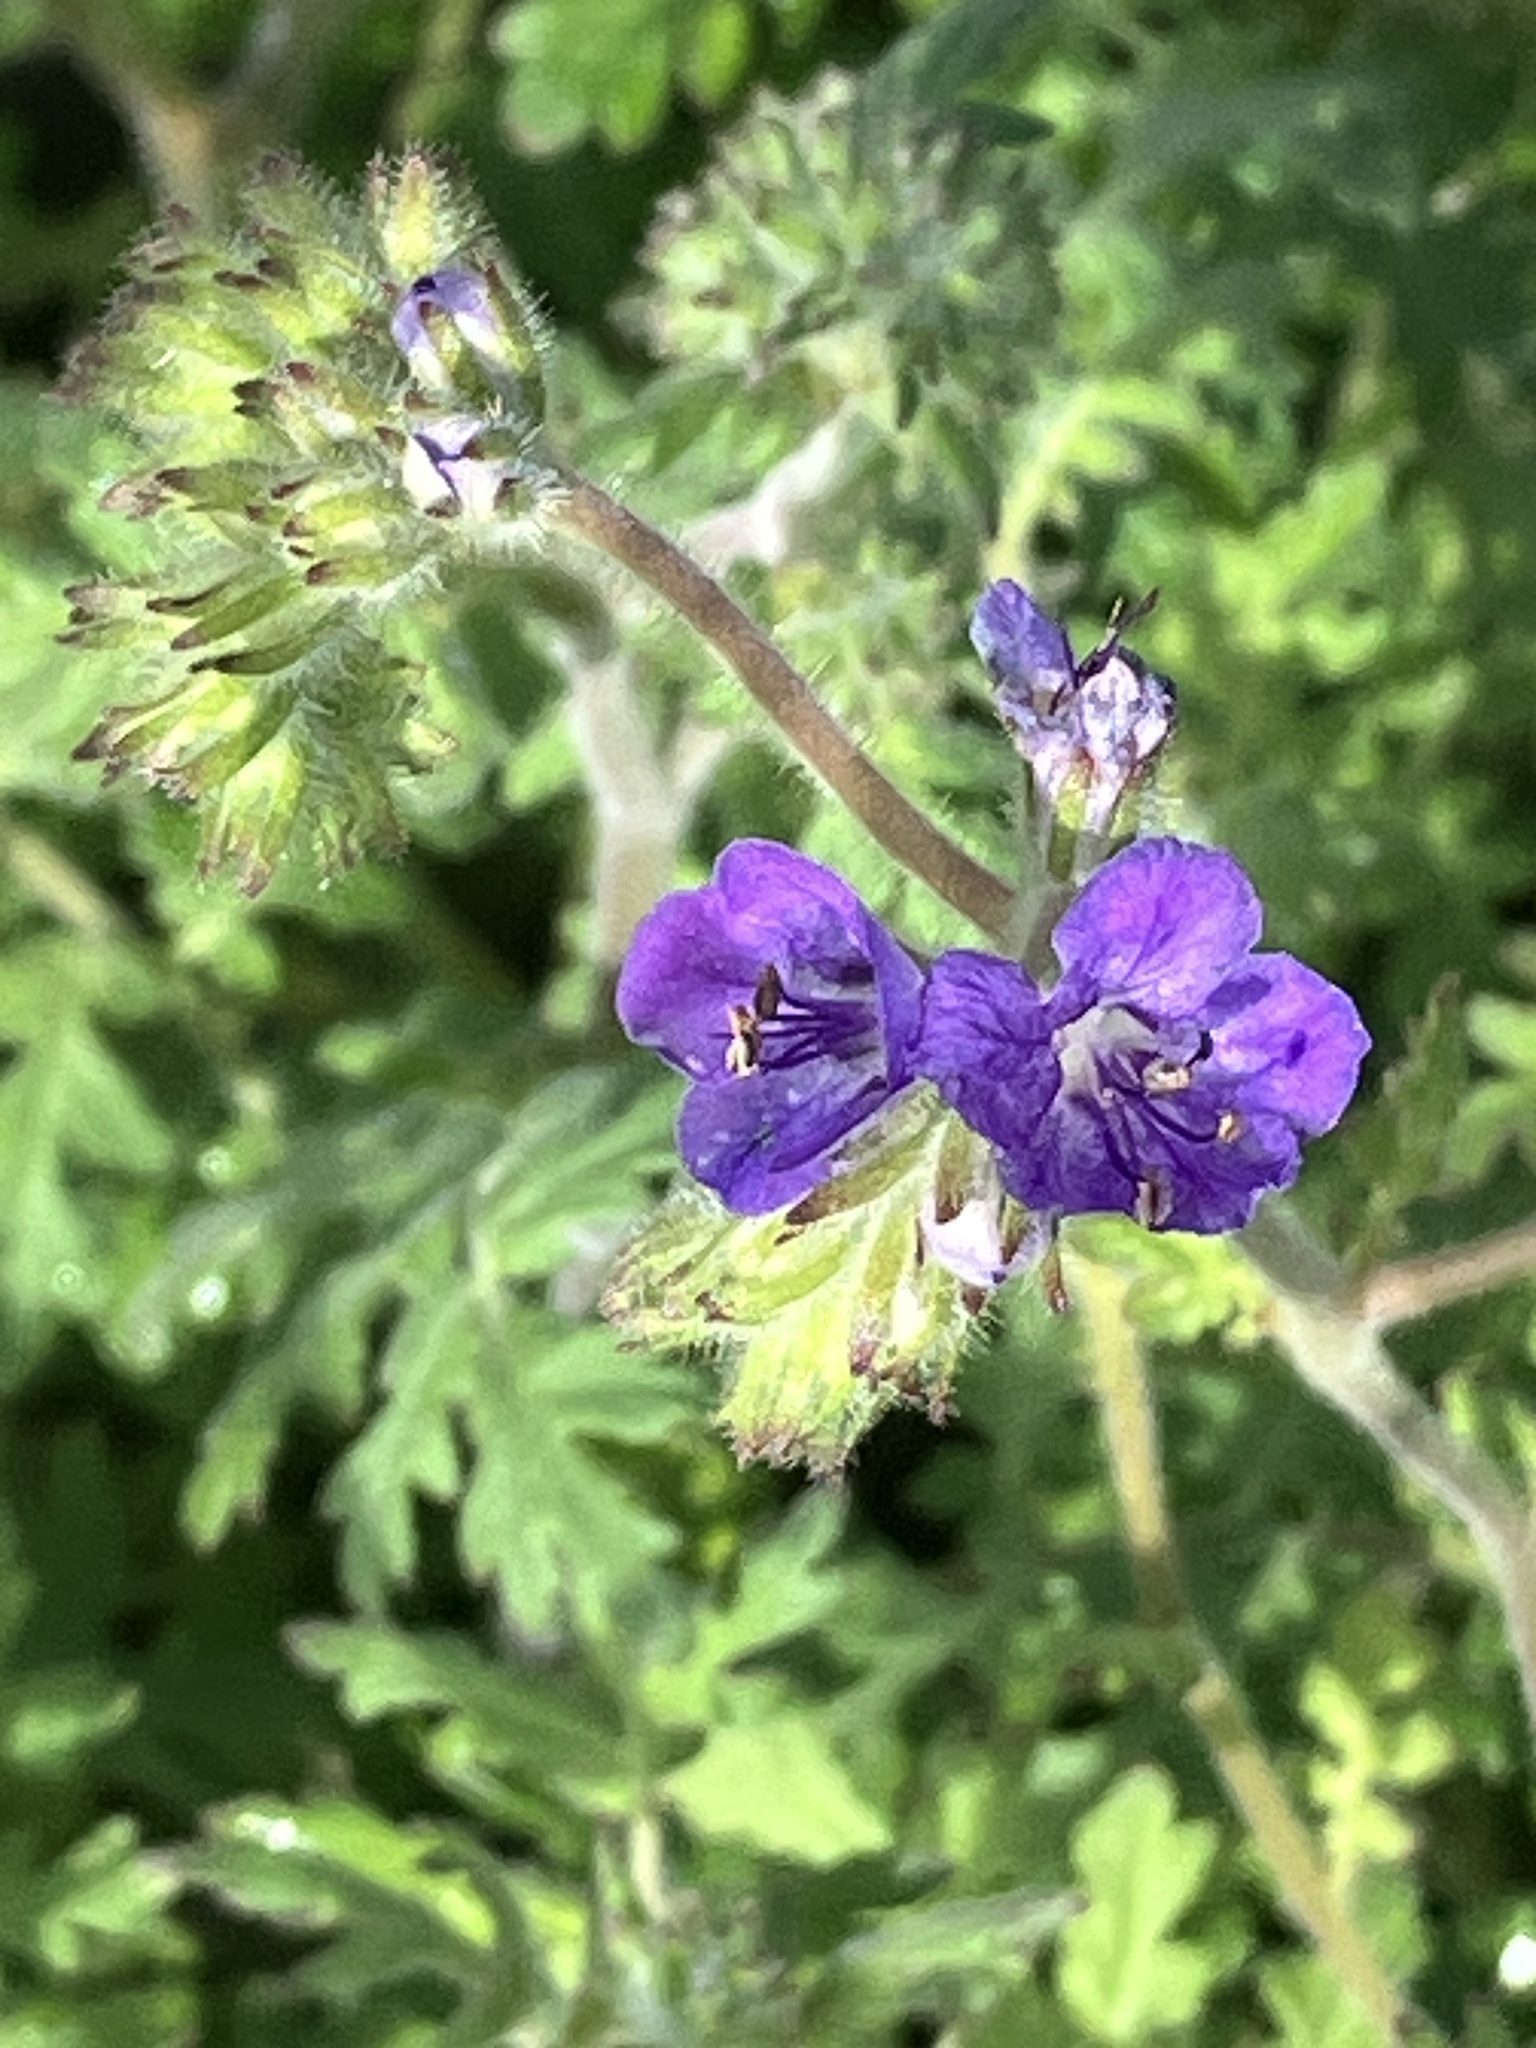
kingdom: Plantae
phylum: Tracheophyta
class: Magnoliopsida
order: Boraginales
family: Hydrophyllaceae
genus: Phacelia
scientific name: Phacelia distans
